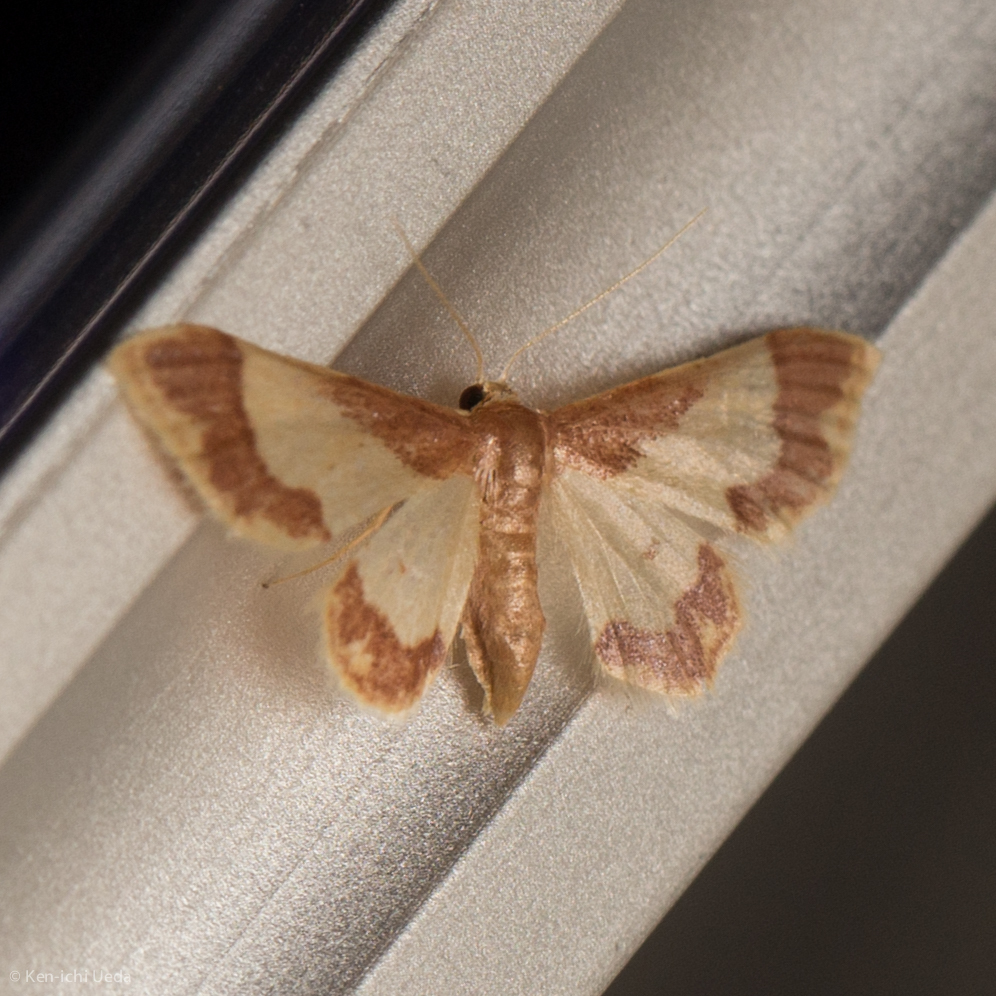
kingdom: Animalia
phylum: Arthropoda
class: Insecta
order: Lepidoptera
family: Geometridae
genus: Idaea
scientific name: Idaea basinta
